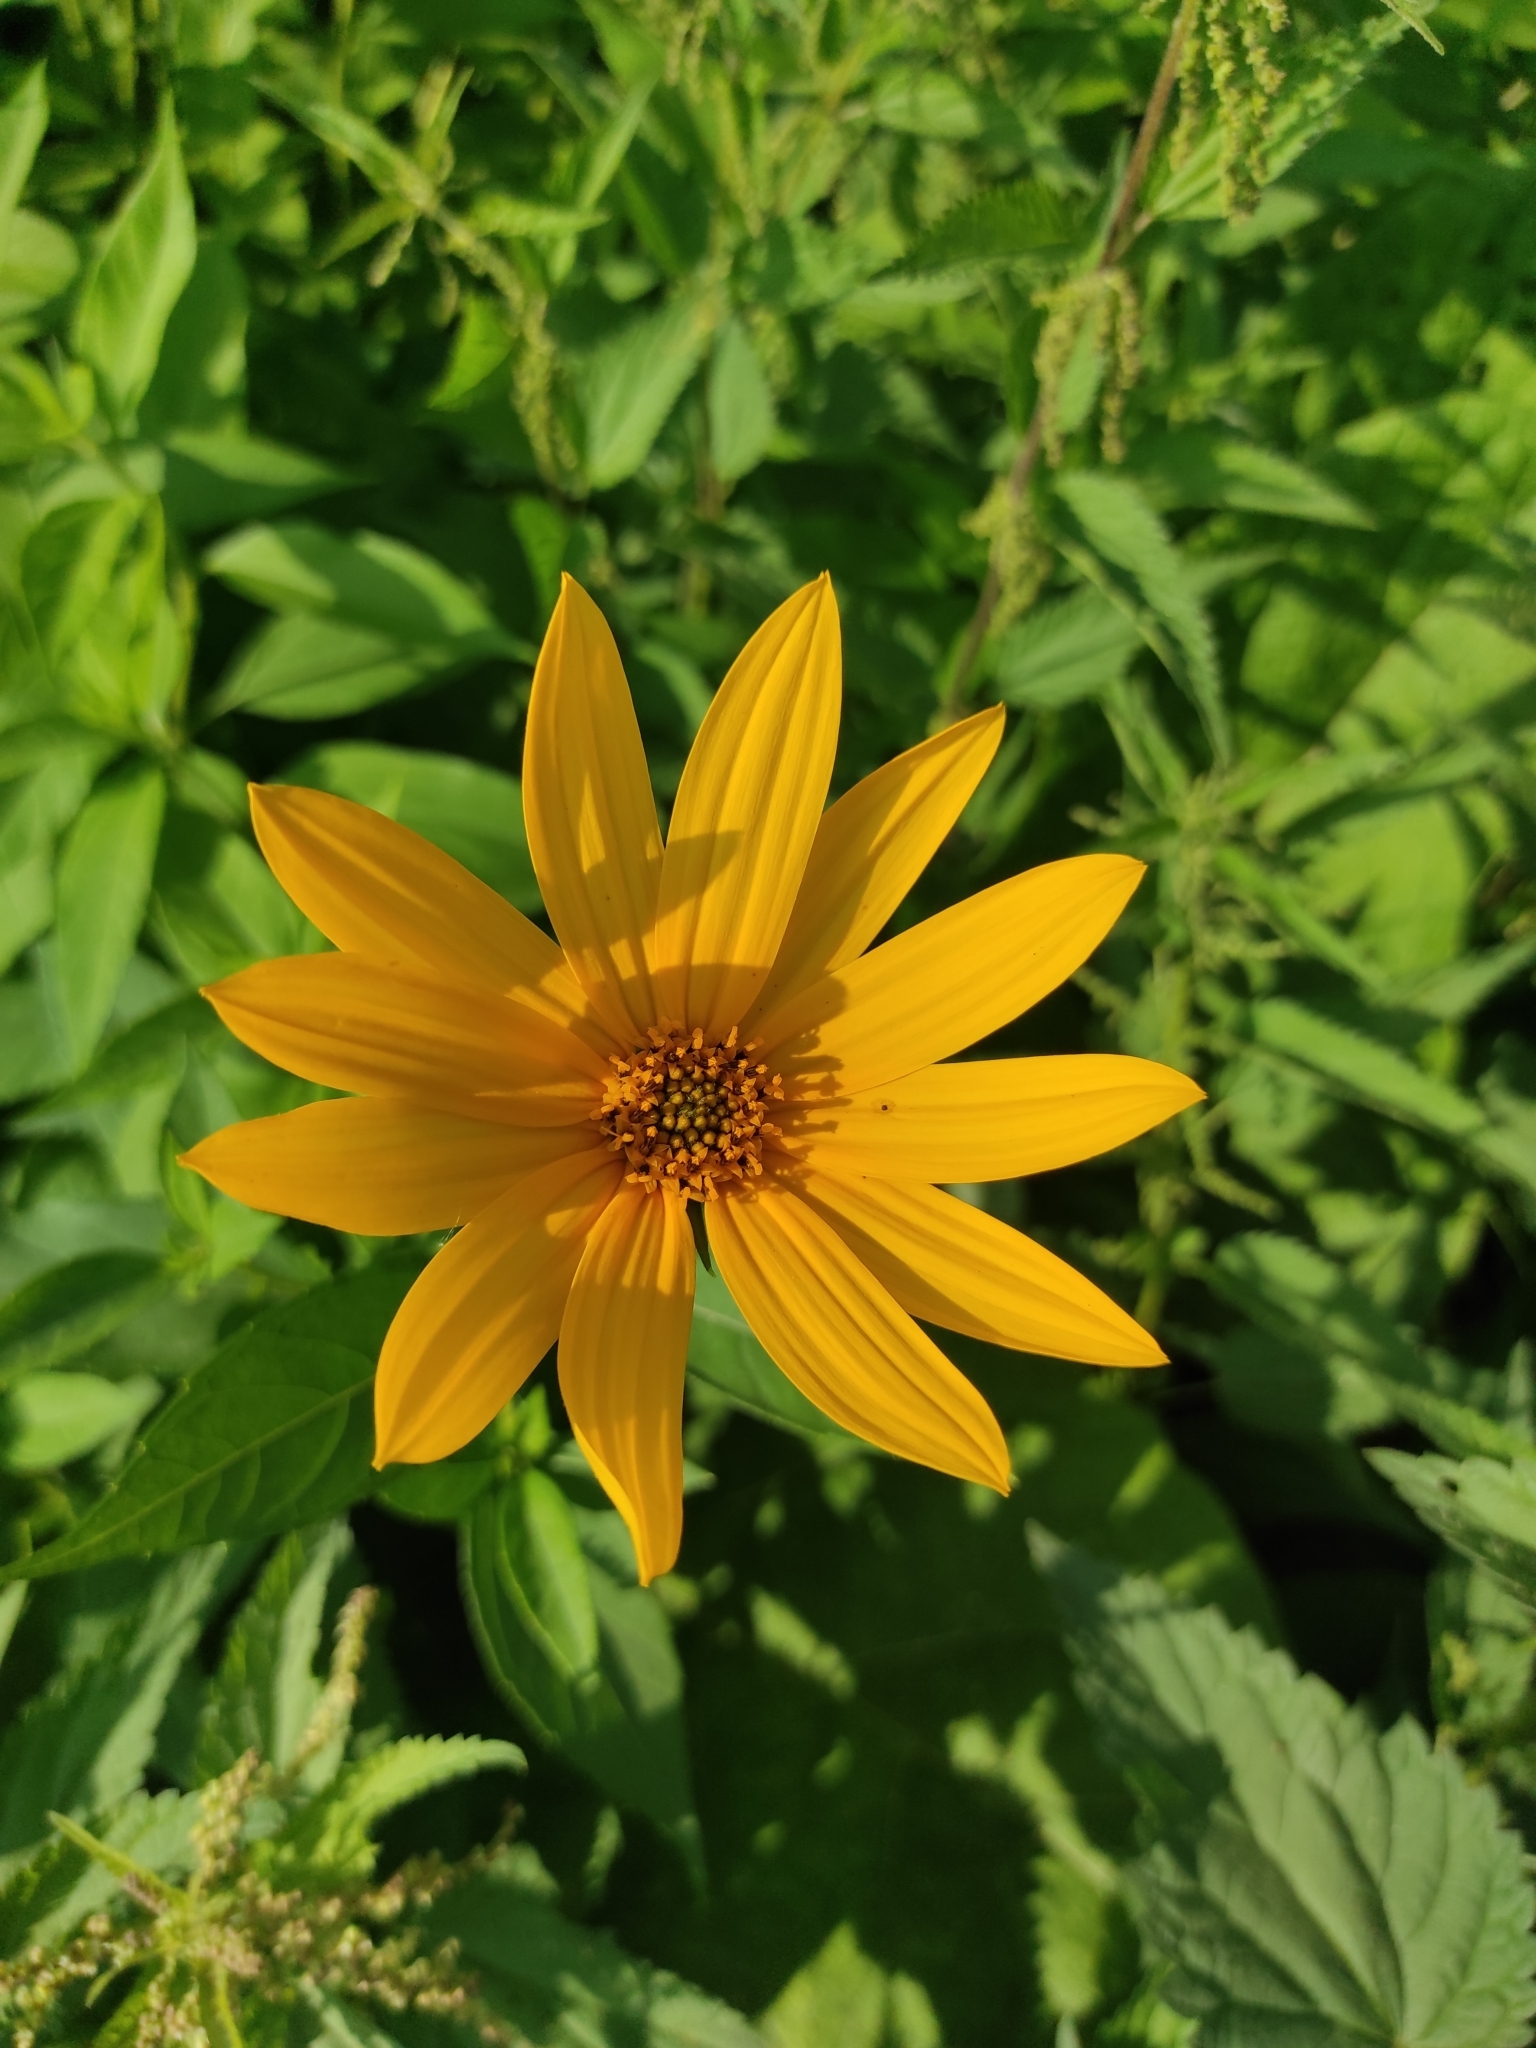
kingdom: Plantae
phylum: Tracheophyta
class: Magnoliopsida
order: Asterales
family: Asteraceae
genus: Helianthus
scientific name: Helianthus tuberosus
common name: Jerusalem artichoke
